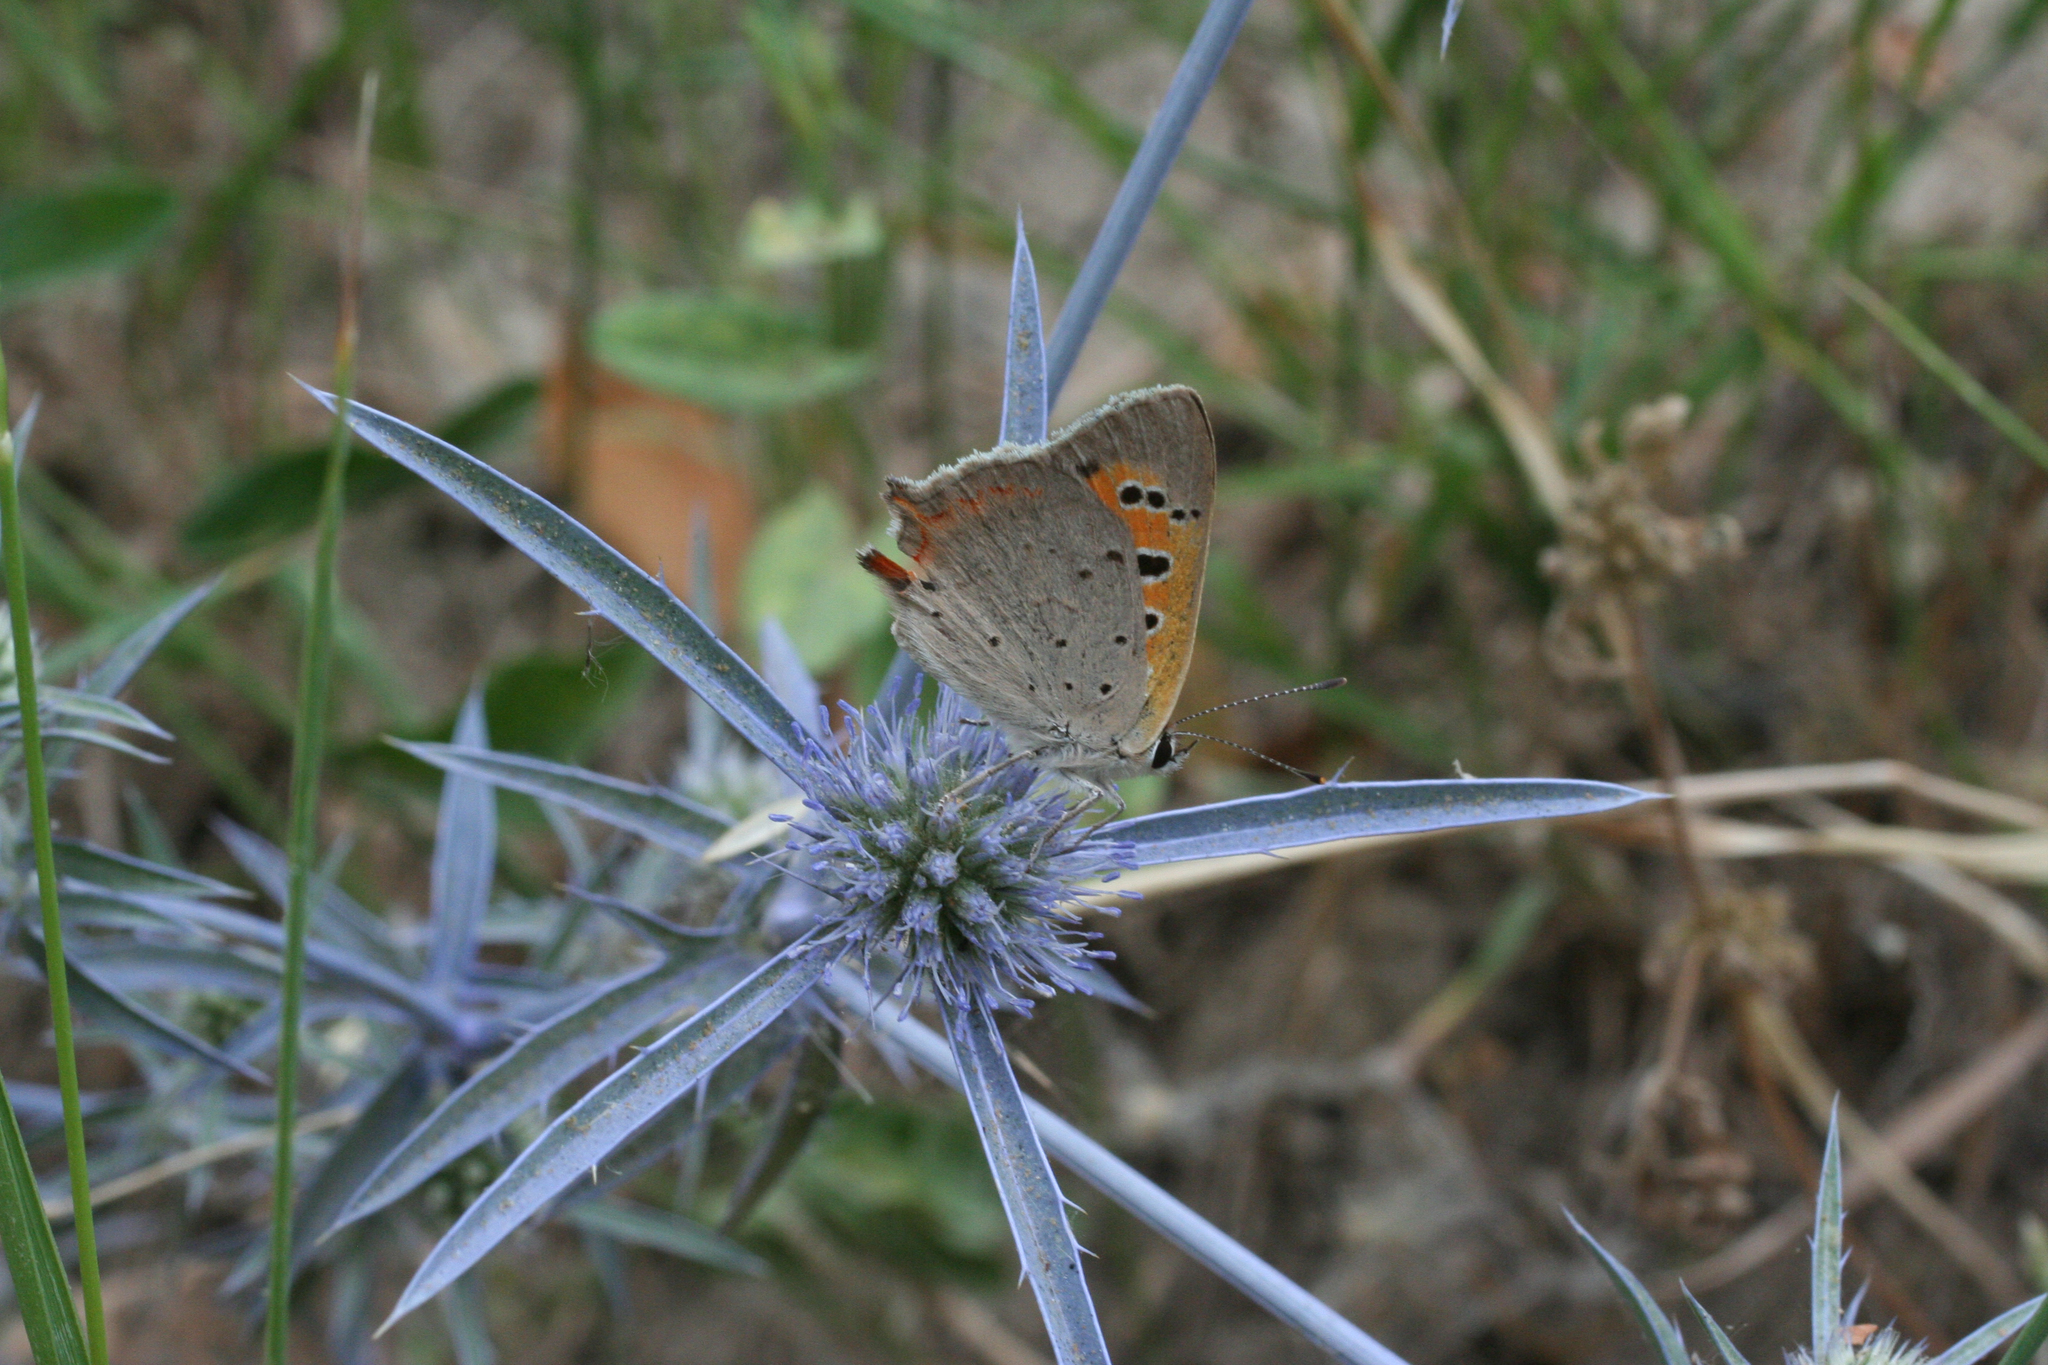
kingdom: Animalia
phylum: Arthropoda
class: Insecta
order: Lepidoptera
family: Lycaenidae
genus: Lycaena
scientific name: Lycaena phlaeas
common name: Small copper
